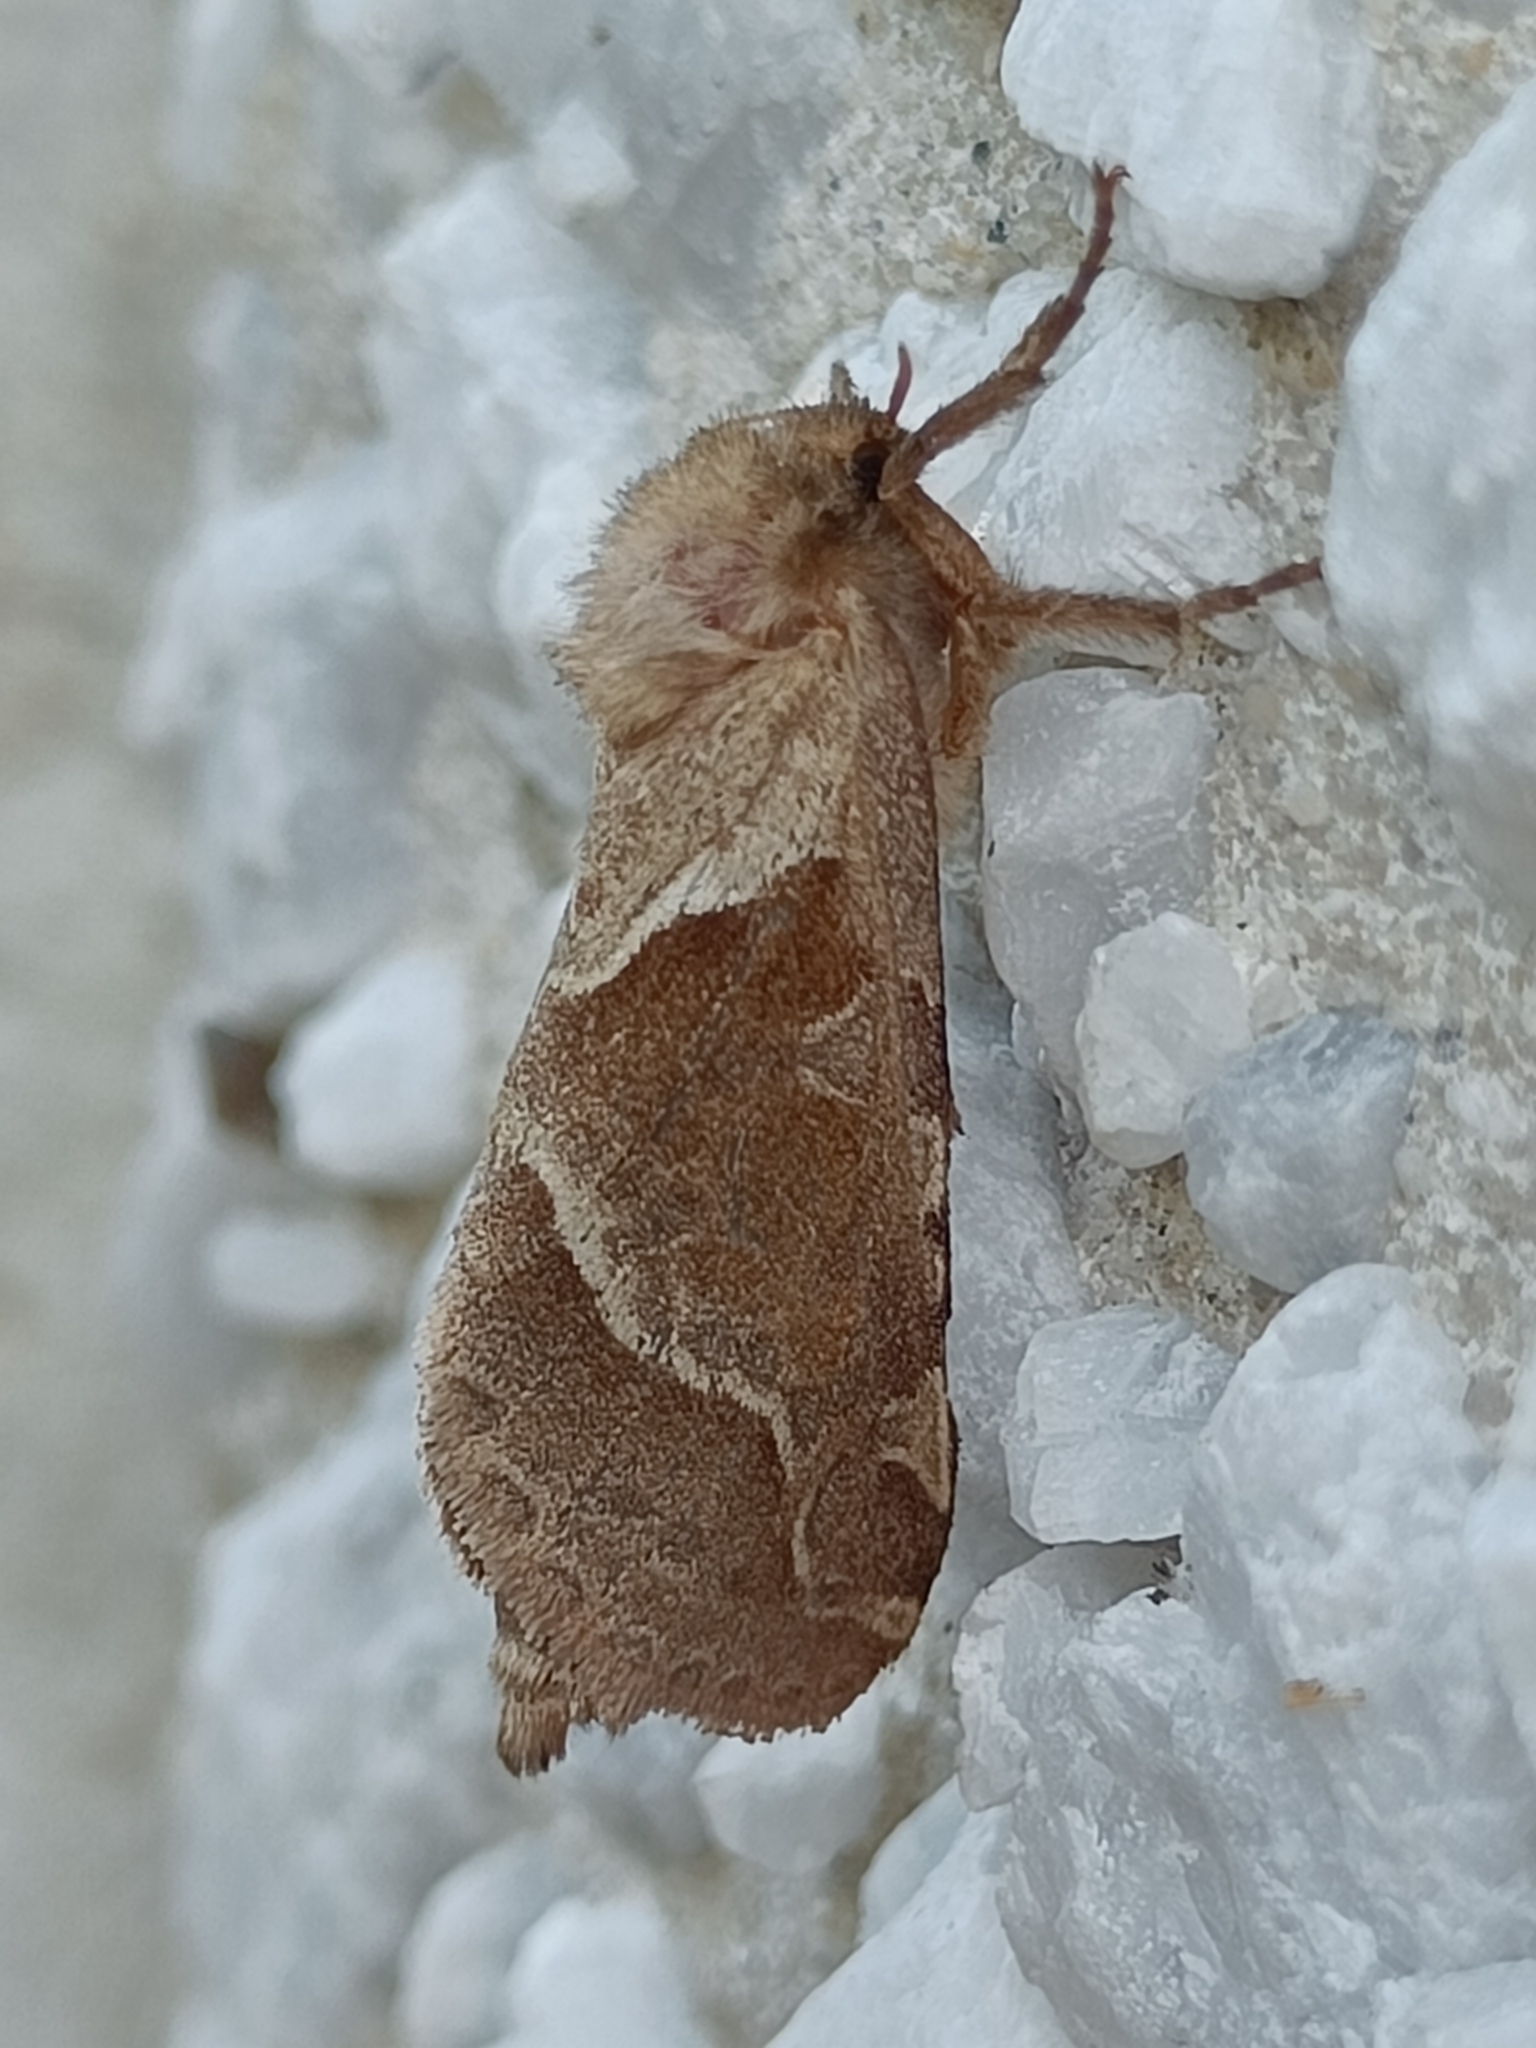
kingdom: Animalia
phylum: Arthropoda
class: Insecta
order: Lepidoptera
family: Hepialidae
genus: Triodia
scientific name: Triodia sylvina
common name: Orange swift
